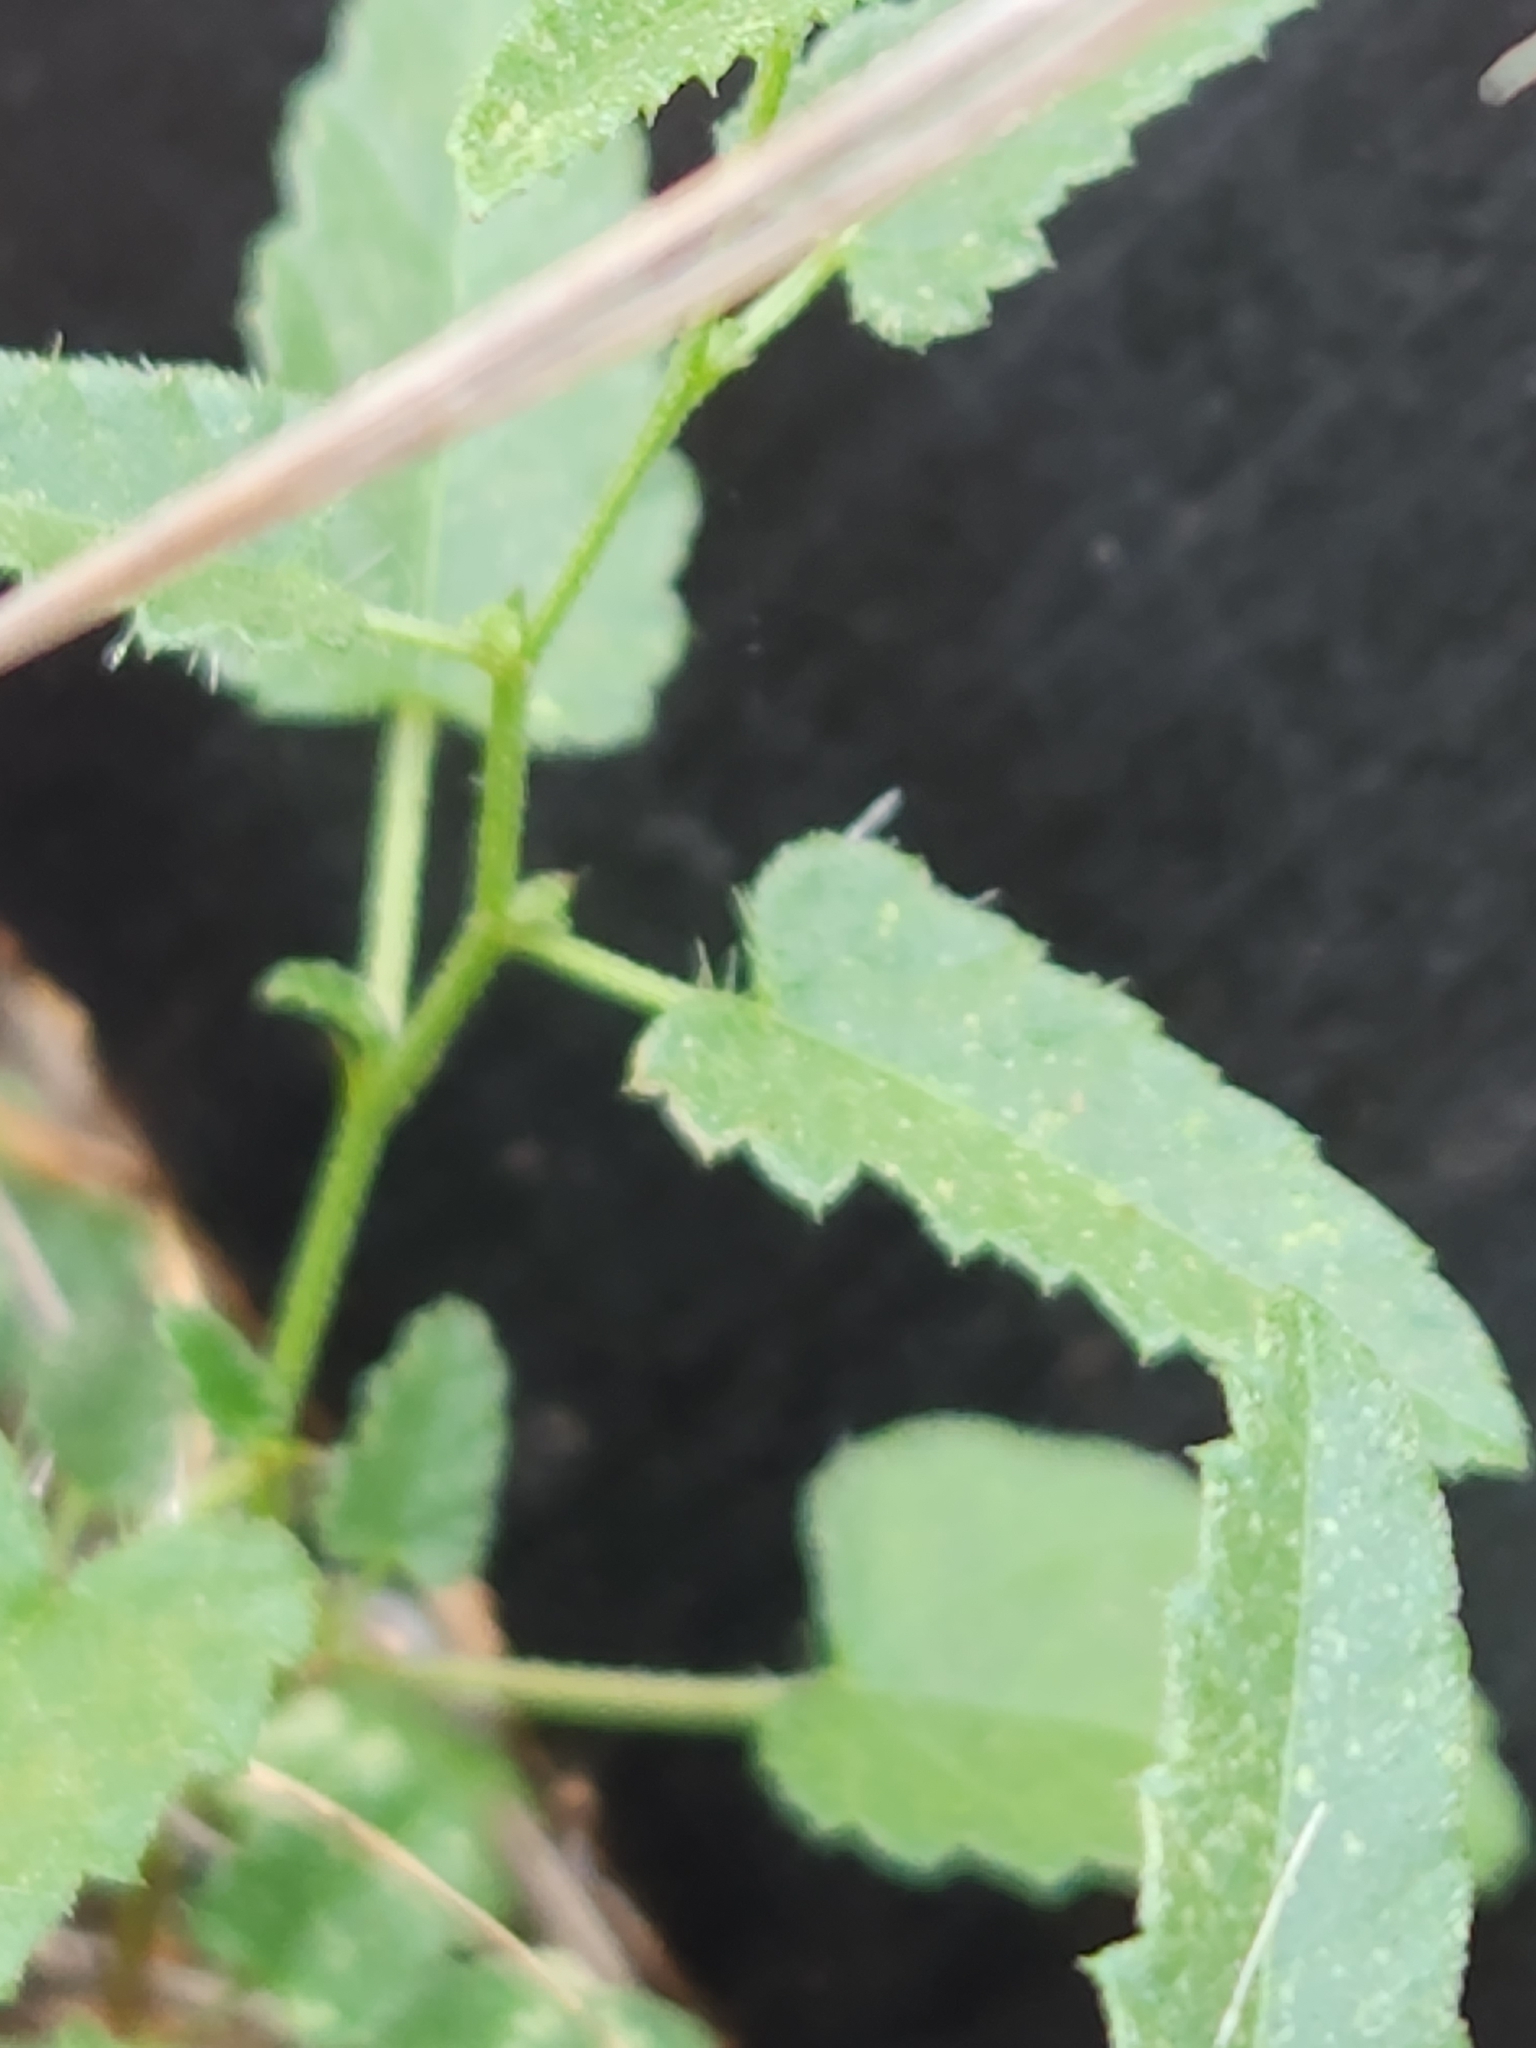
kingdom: Plantae
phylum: Tracheophyta
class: Magnoliopsida
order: Malpighiales
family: Euphorbiaceae
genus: Tragia
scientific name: Tragia ramosa
